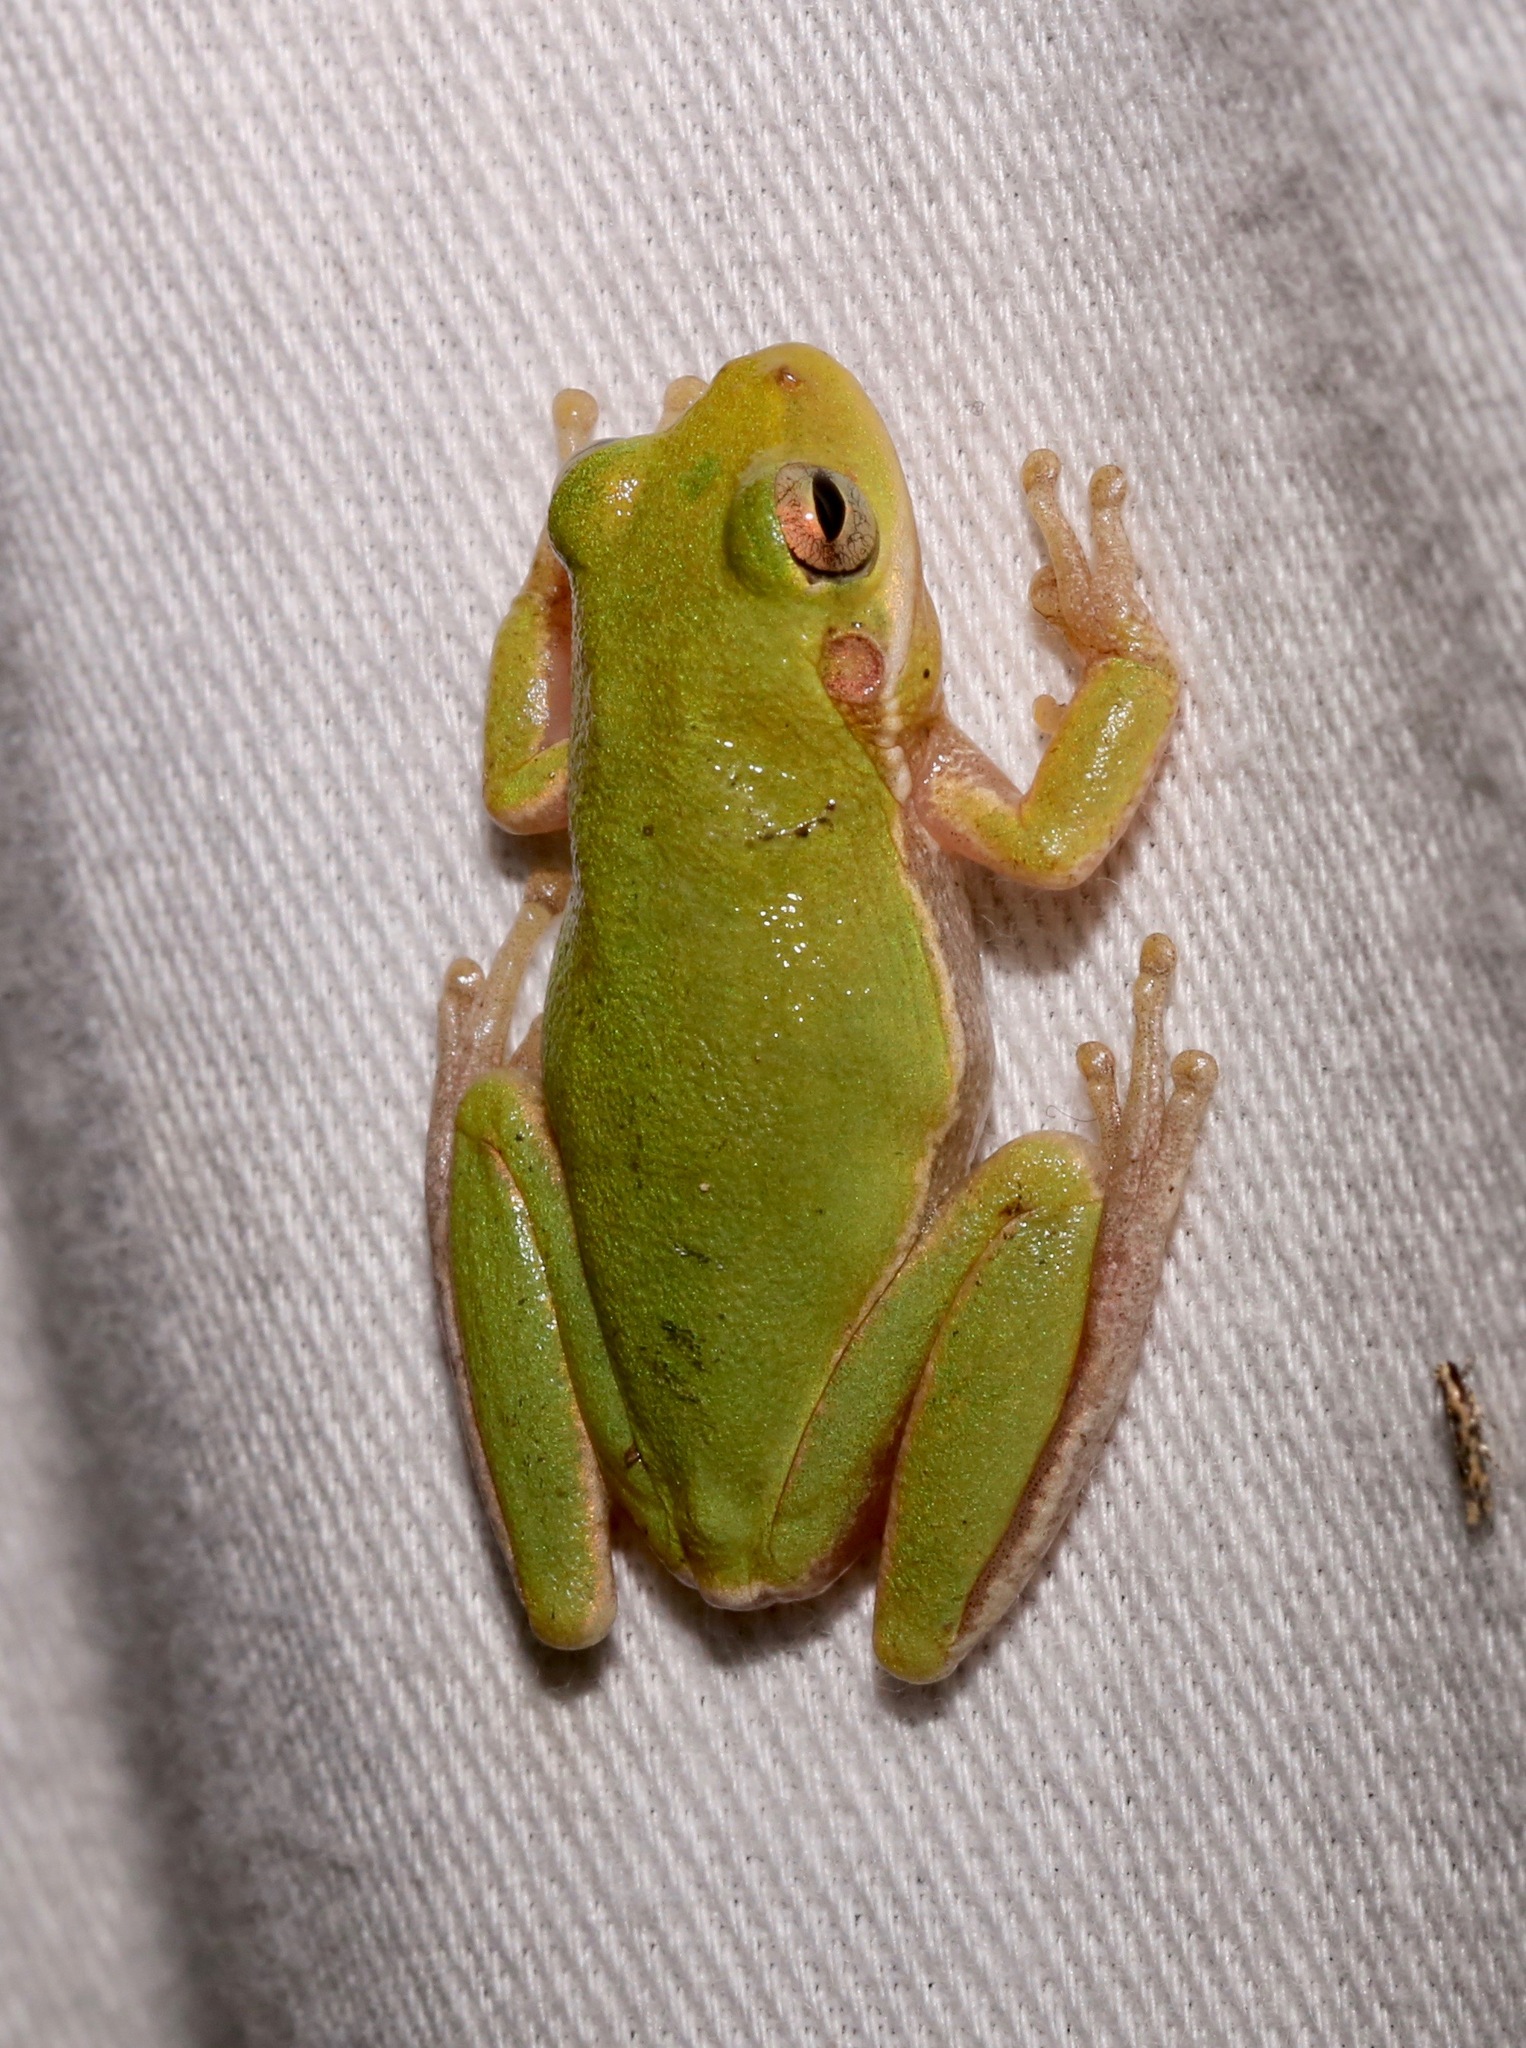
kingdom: Animalia
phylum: Chordata
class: Amphibia
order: Anura
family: Hylidae
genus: Dryophytes
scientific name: Dryophytes squirellus
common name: Squirrel treefrog
